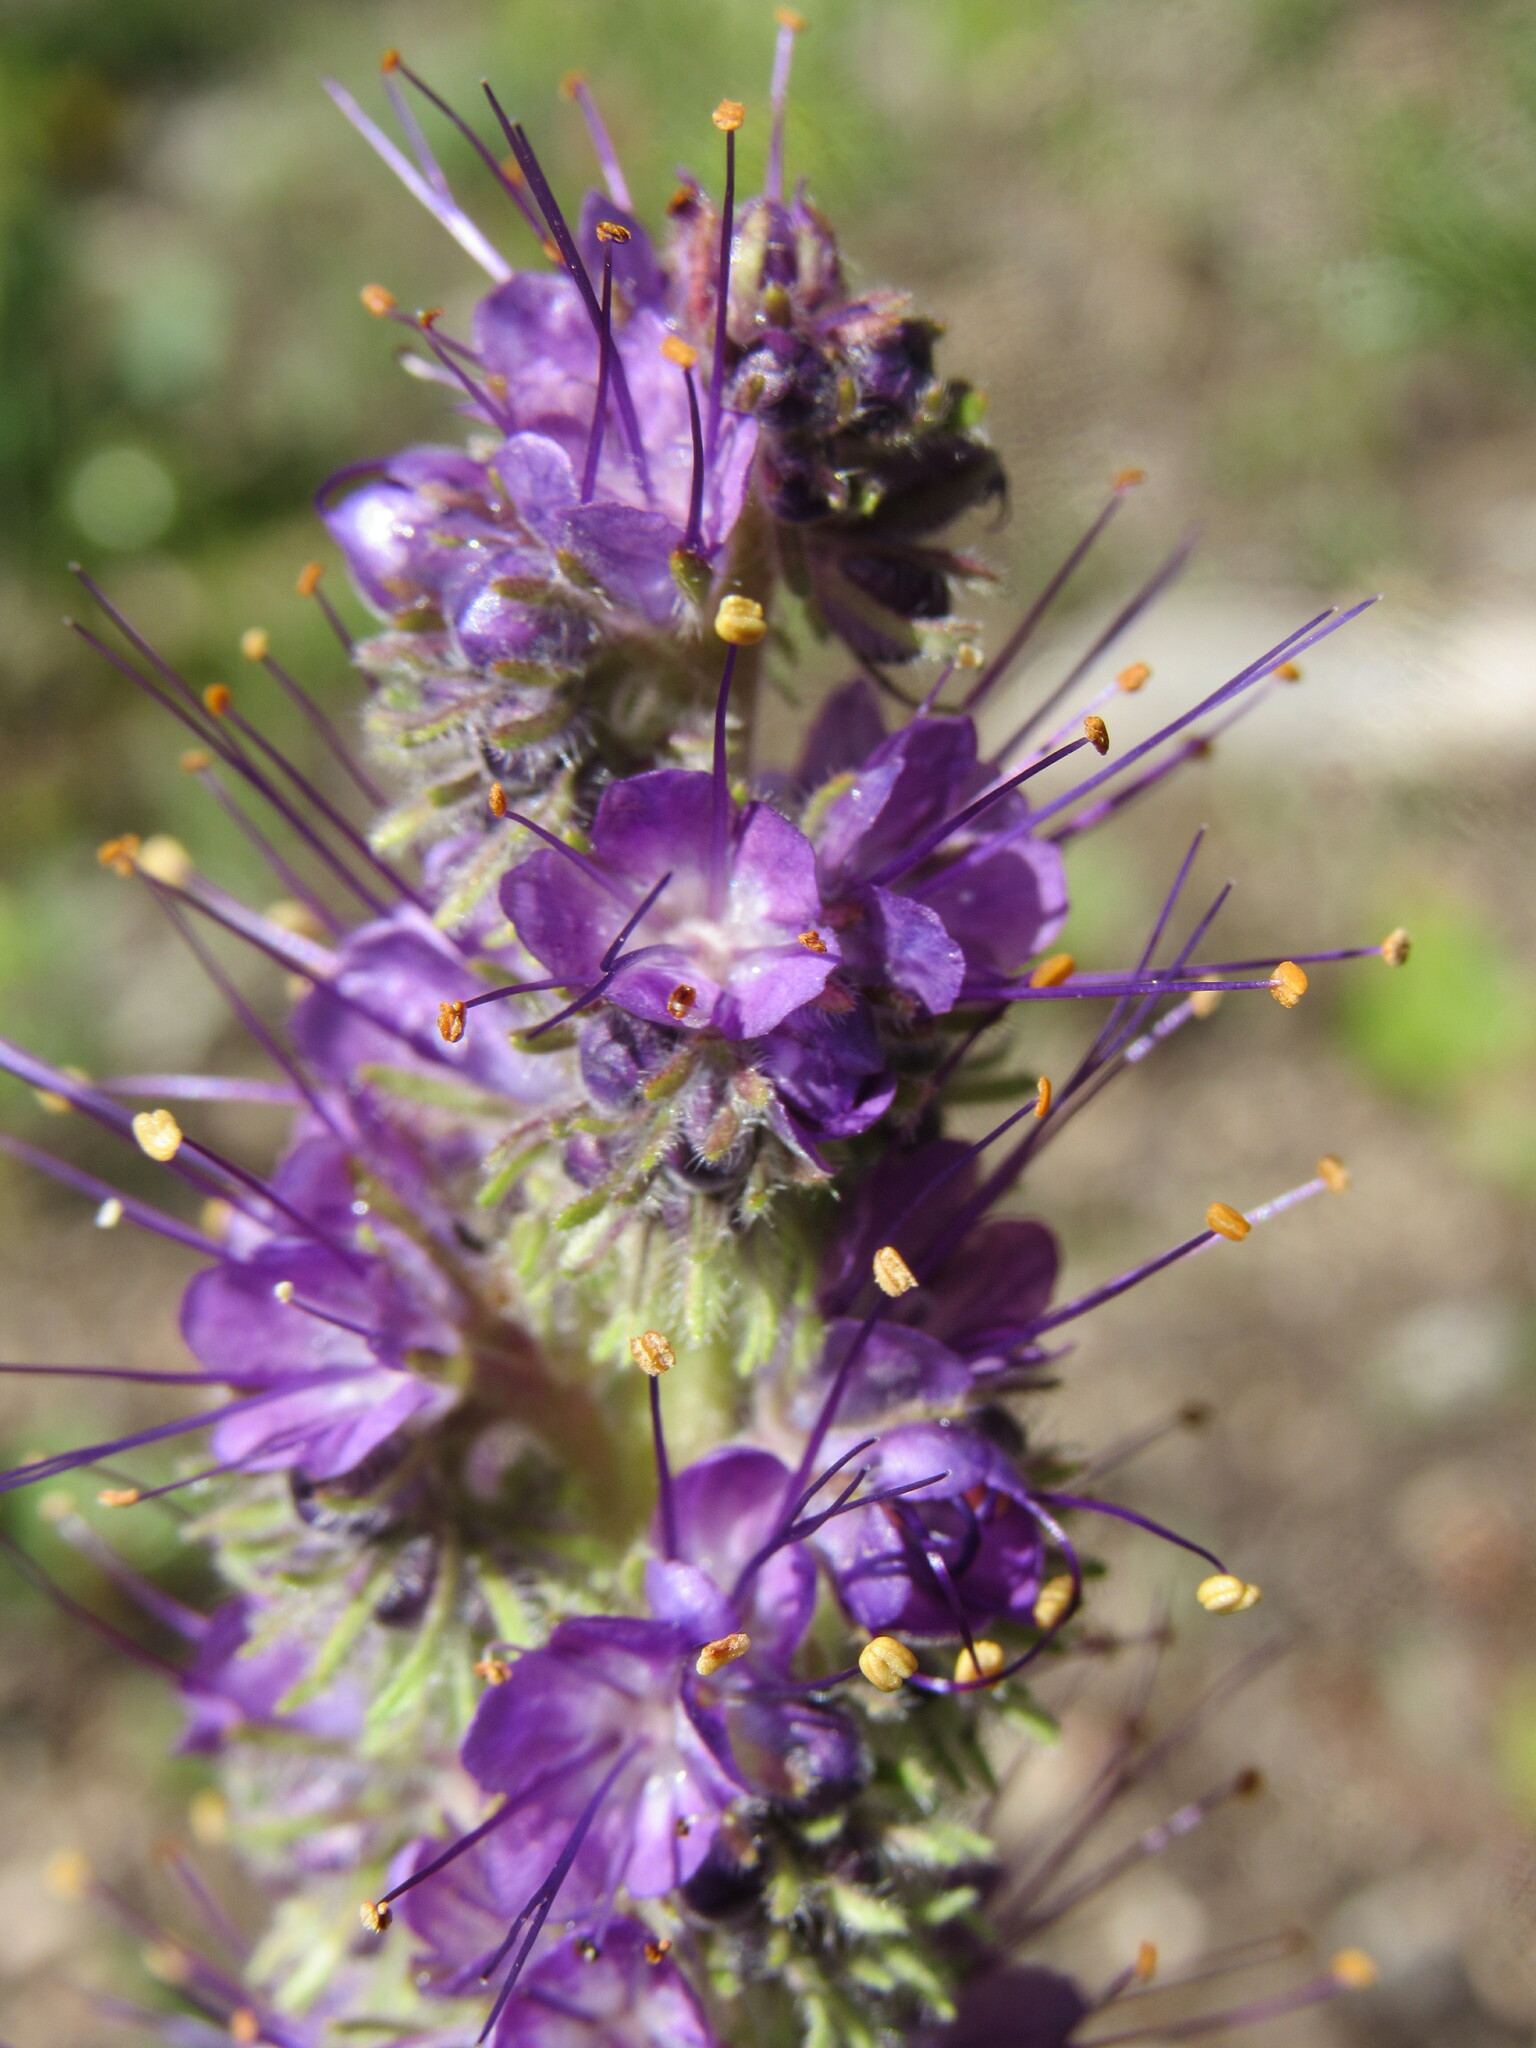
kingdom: Plantae
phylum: Tracheophyta
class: Magnoliopsida
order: Boraginales
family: Hydrophyllaceae
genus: Phacelia
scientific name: Phacelia sericea
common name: Silky phacelia
